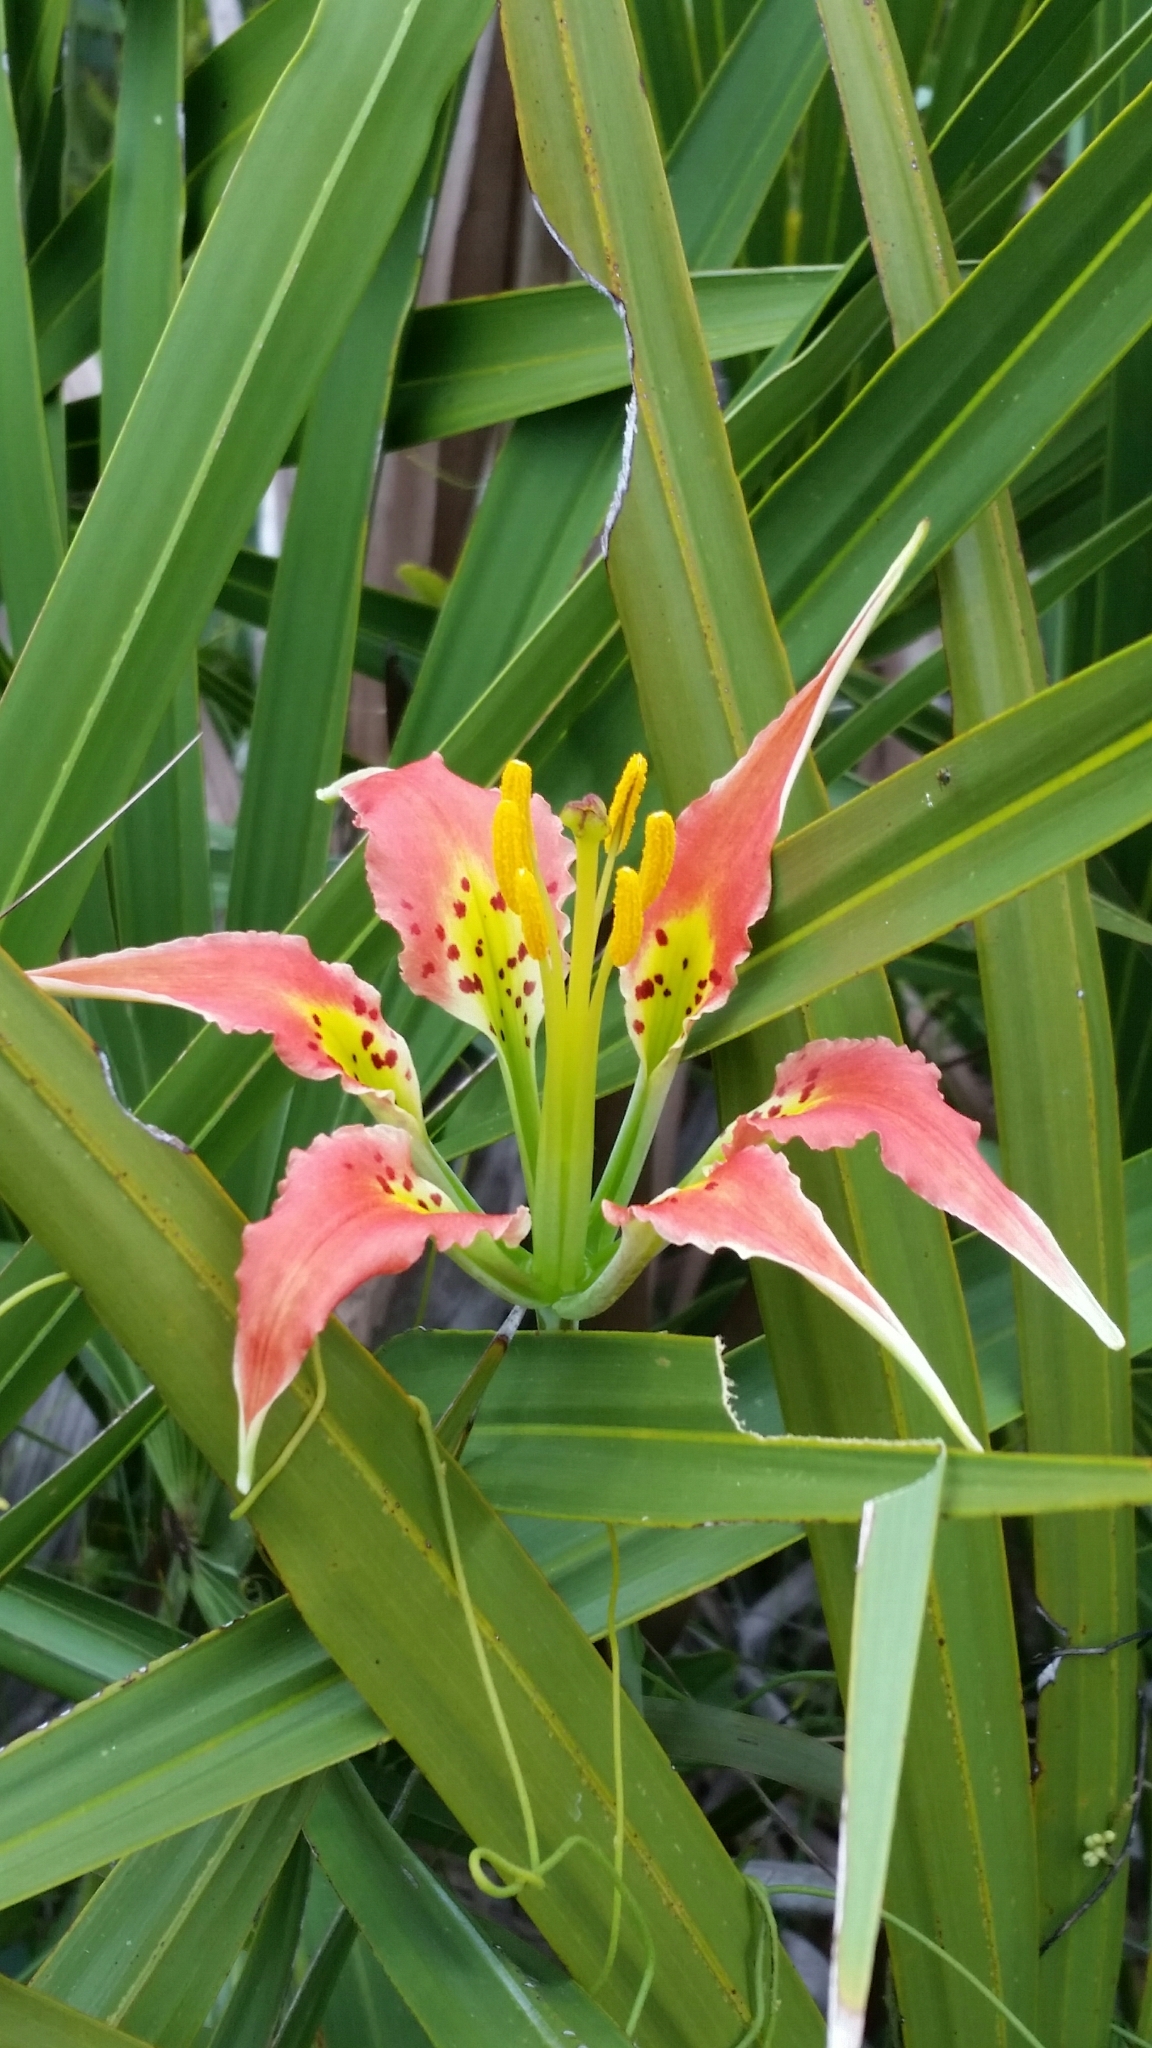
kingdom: Plantae
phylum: Tracheophyta
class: Liliopsida
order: Liliales
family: Liliaceae
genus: Lilium
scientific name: Lilium catesbaei
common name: Catesby's lily
